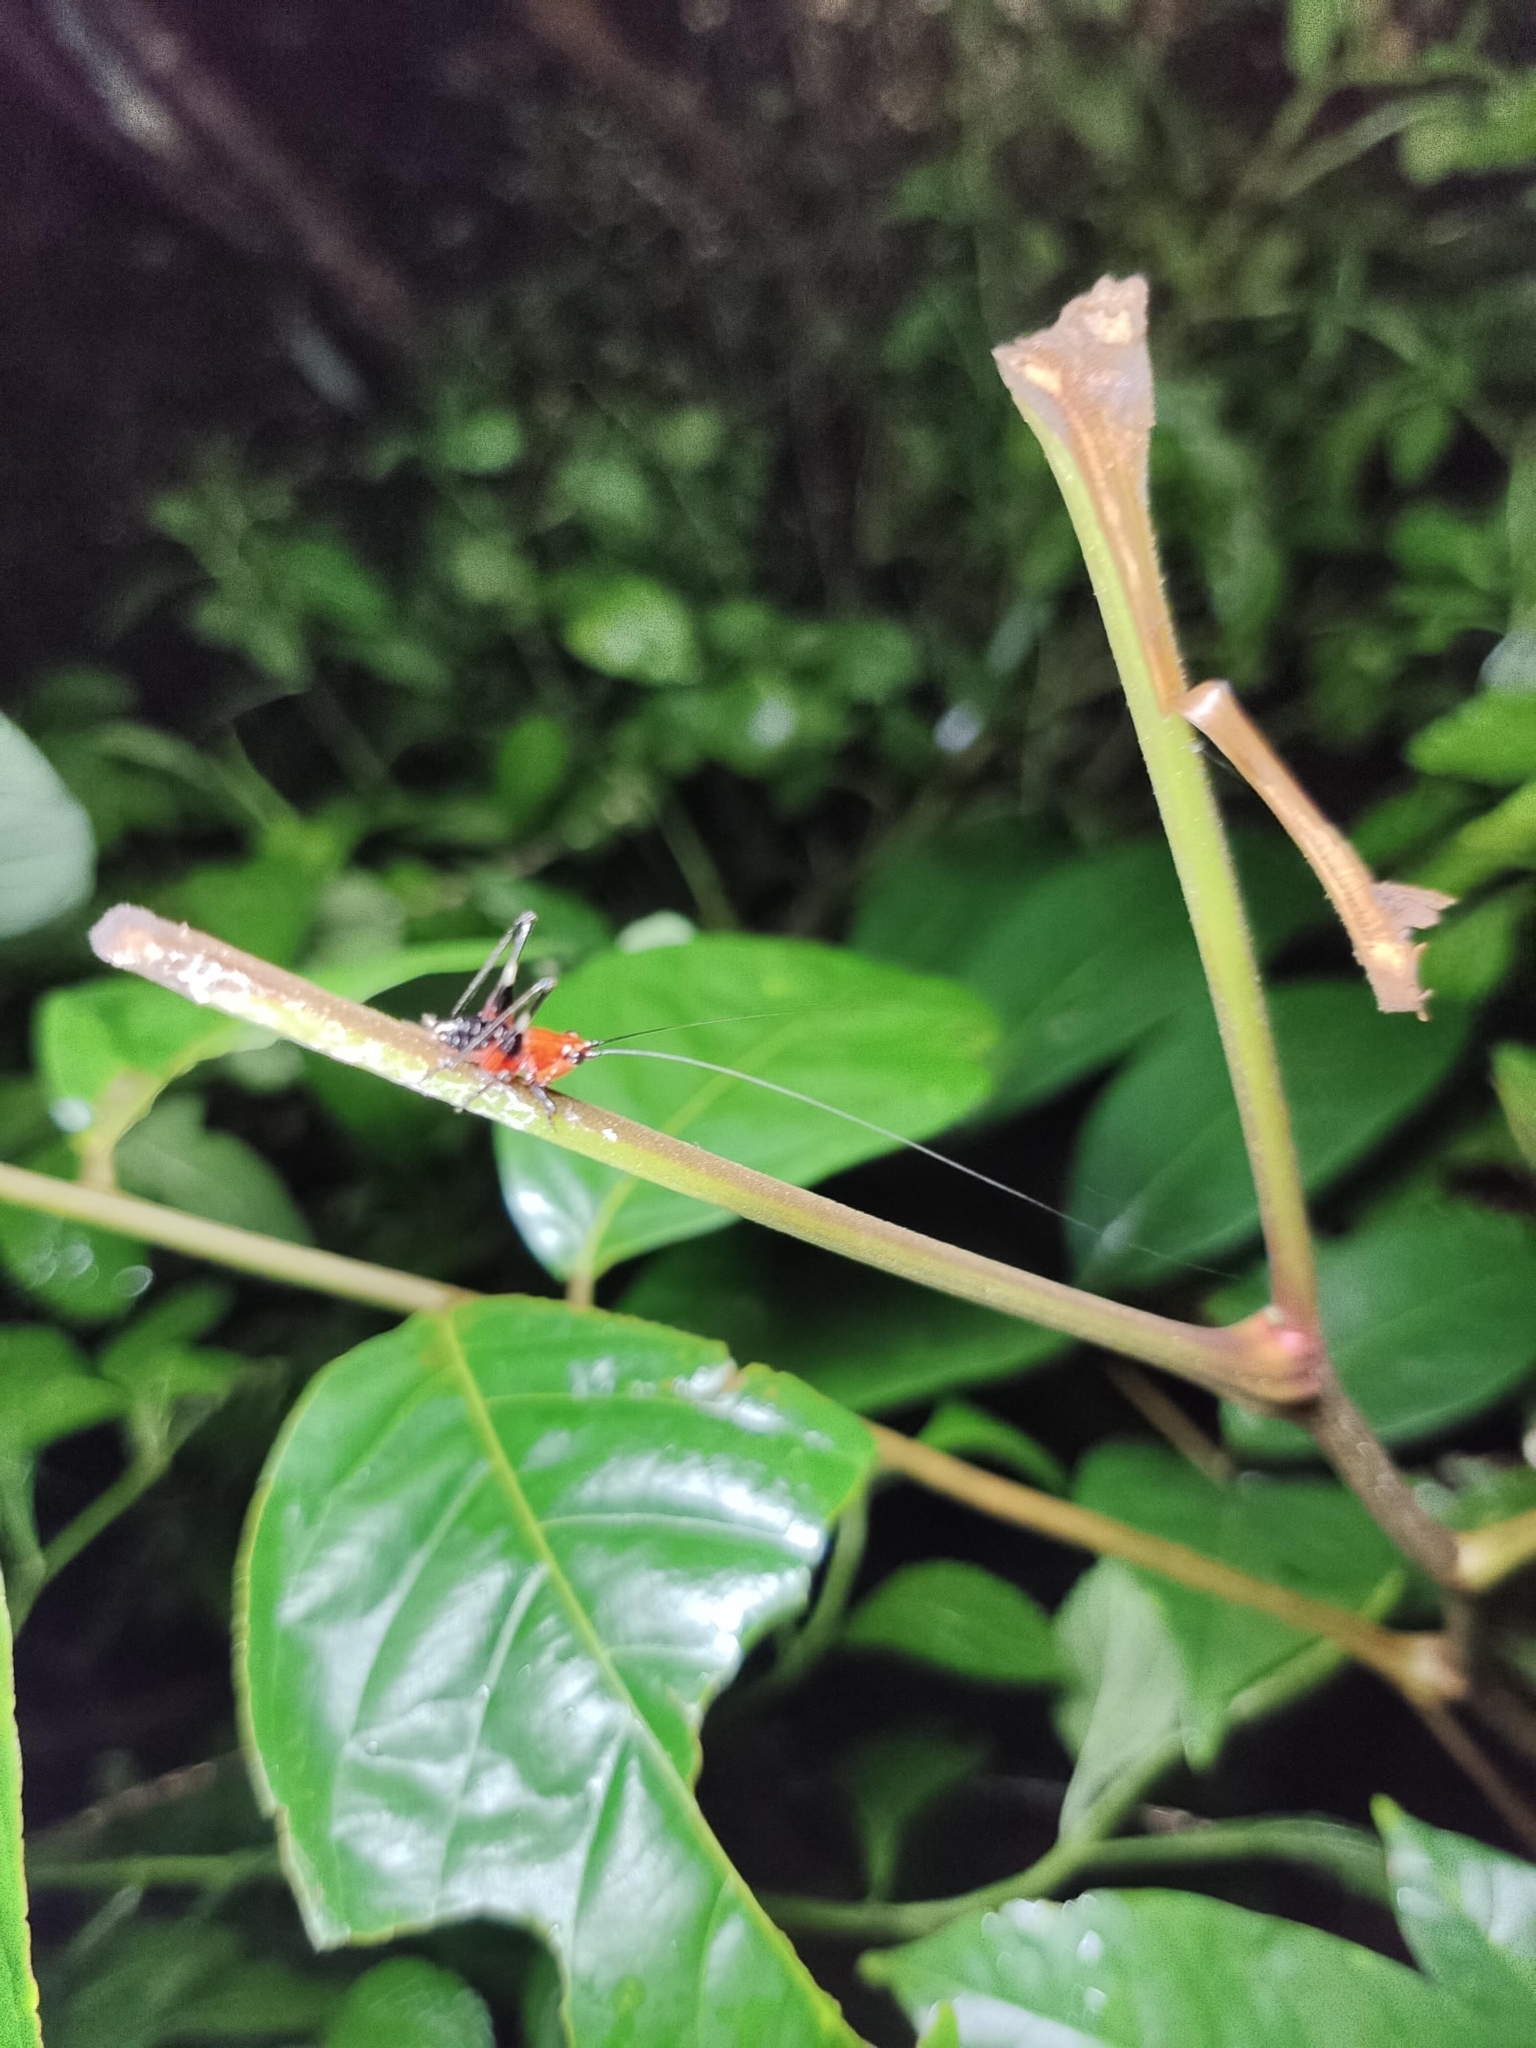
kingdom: Animalia
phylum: Arthropoda
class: Insecta
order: Orthoptera
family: Tettigoniidae
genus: Conocephalus
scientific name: Conocephalus melaenus
